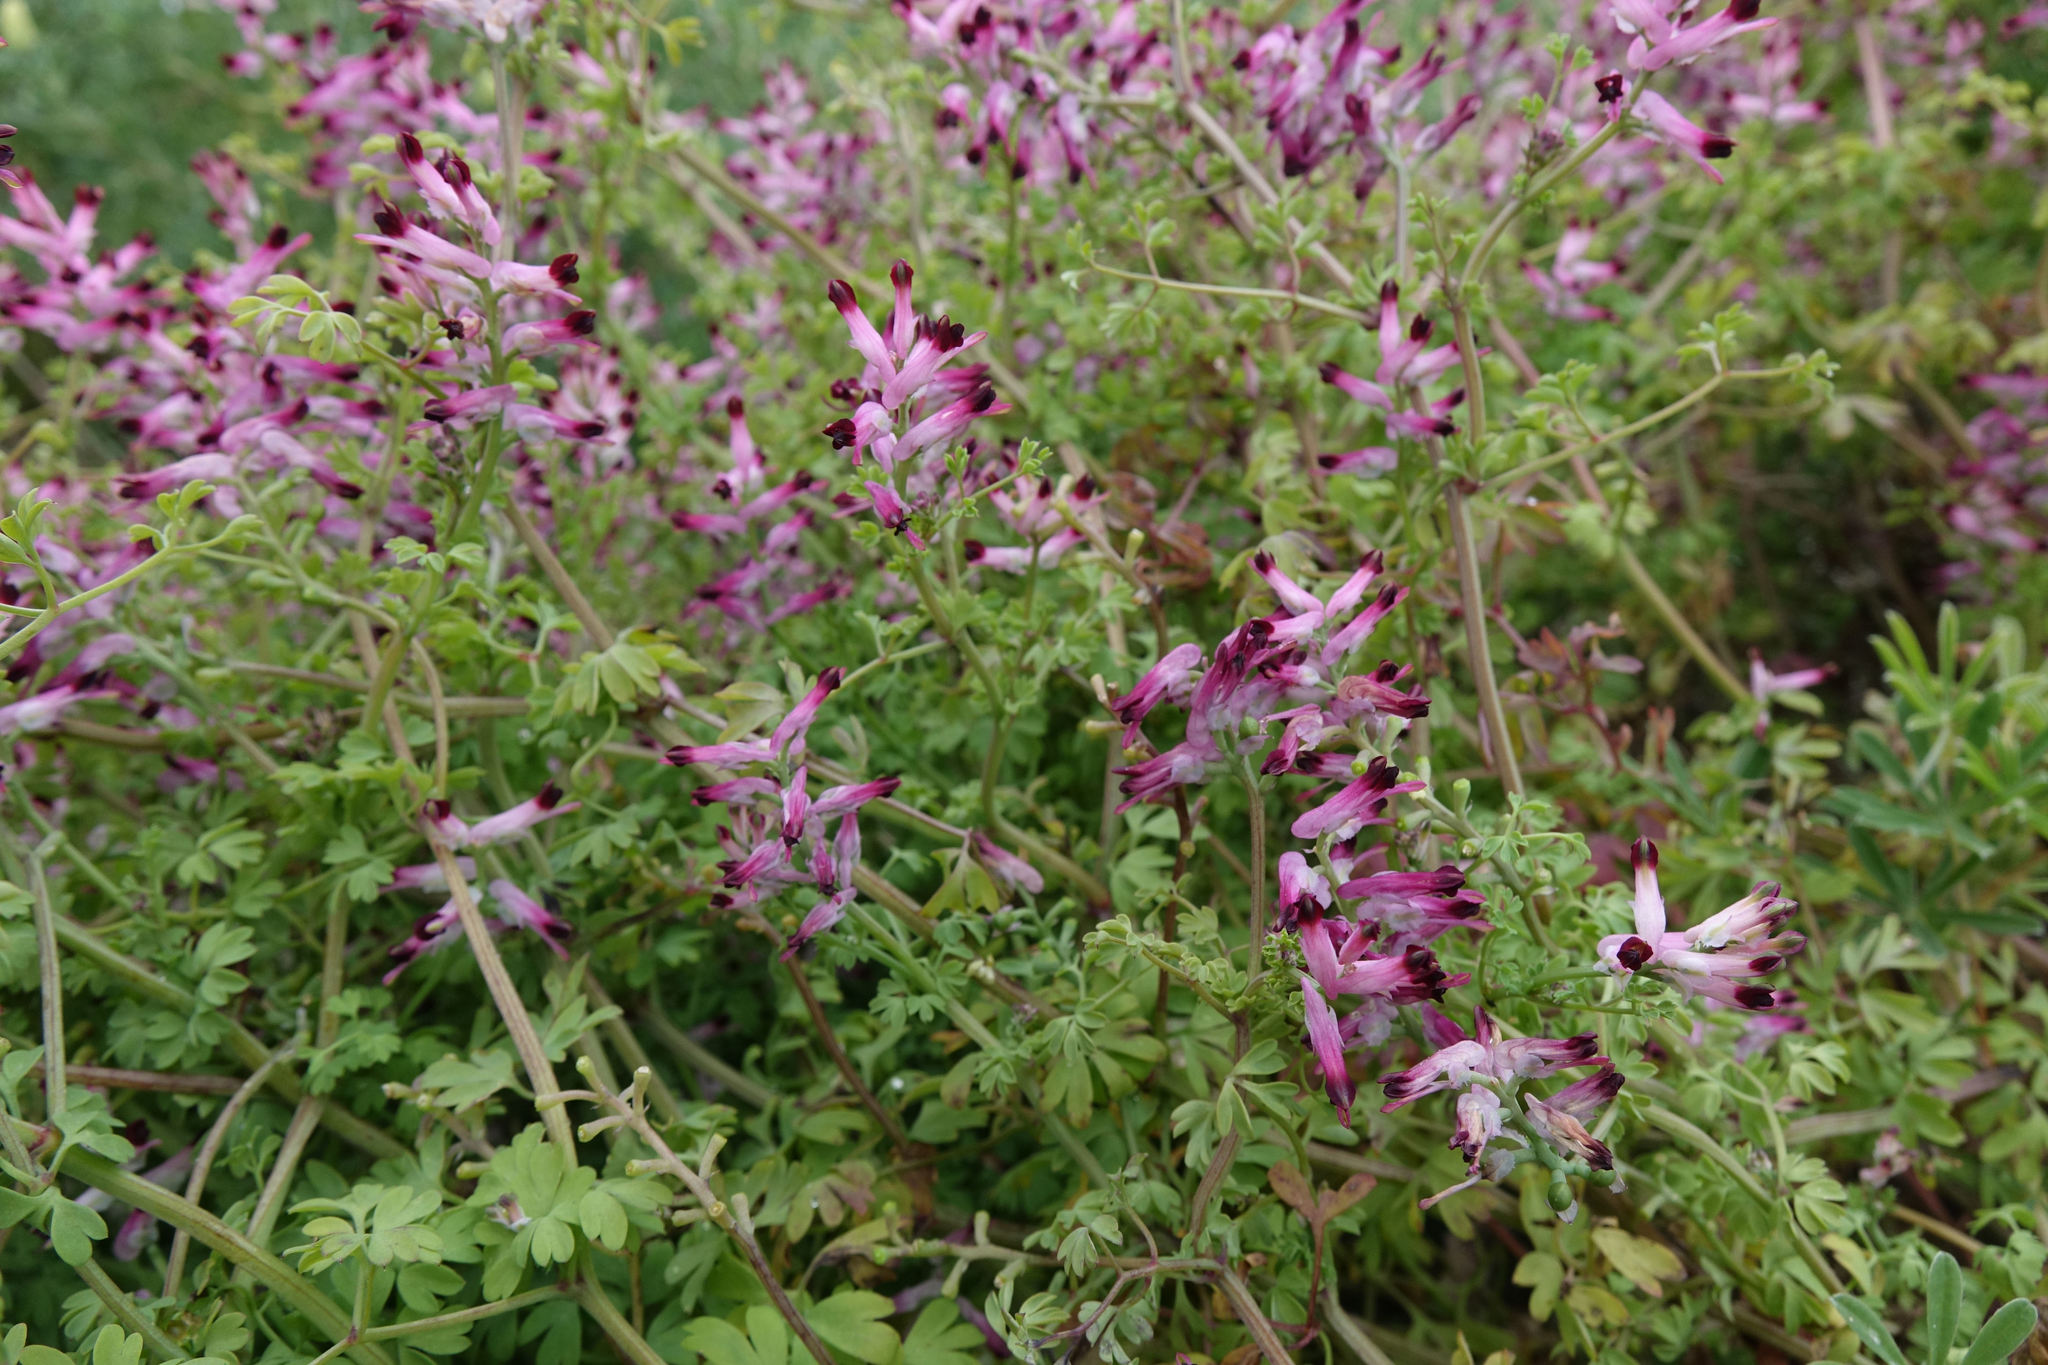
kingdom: Plantae
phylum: Tracheophyta
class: Magnoliopsida
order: Ranunculales
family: Papaveraceae
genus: Fumaria
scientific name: Fumaria bastardii
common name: Tall ramping-fumitory
